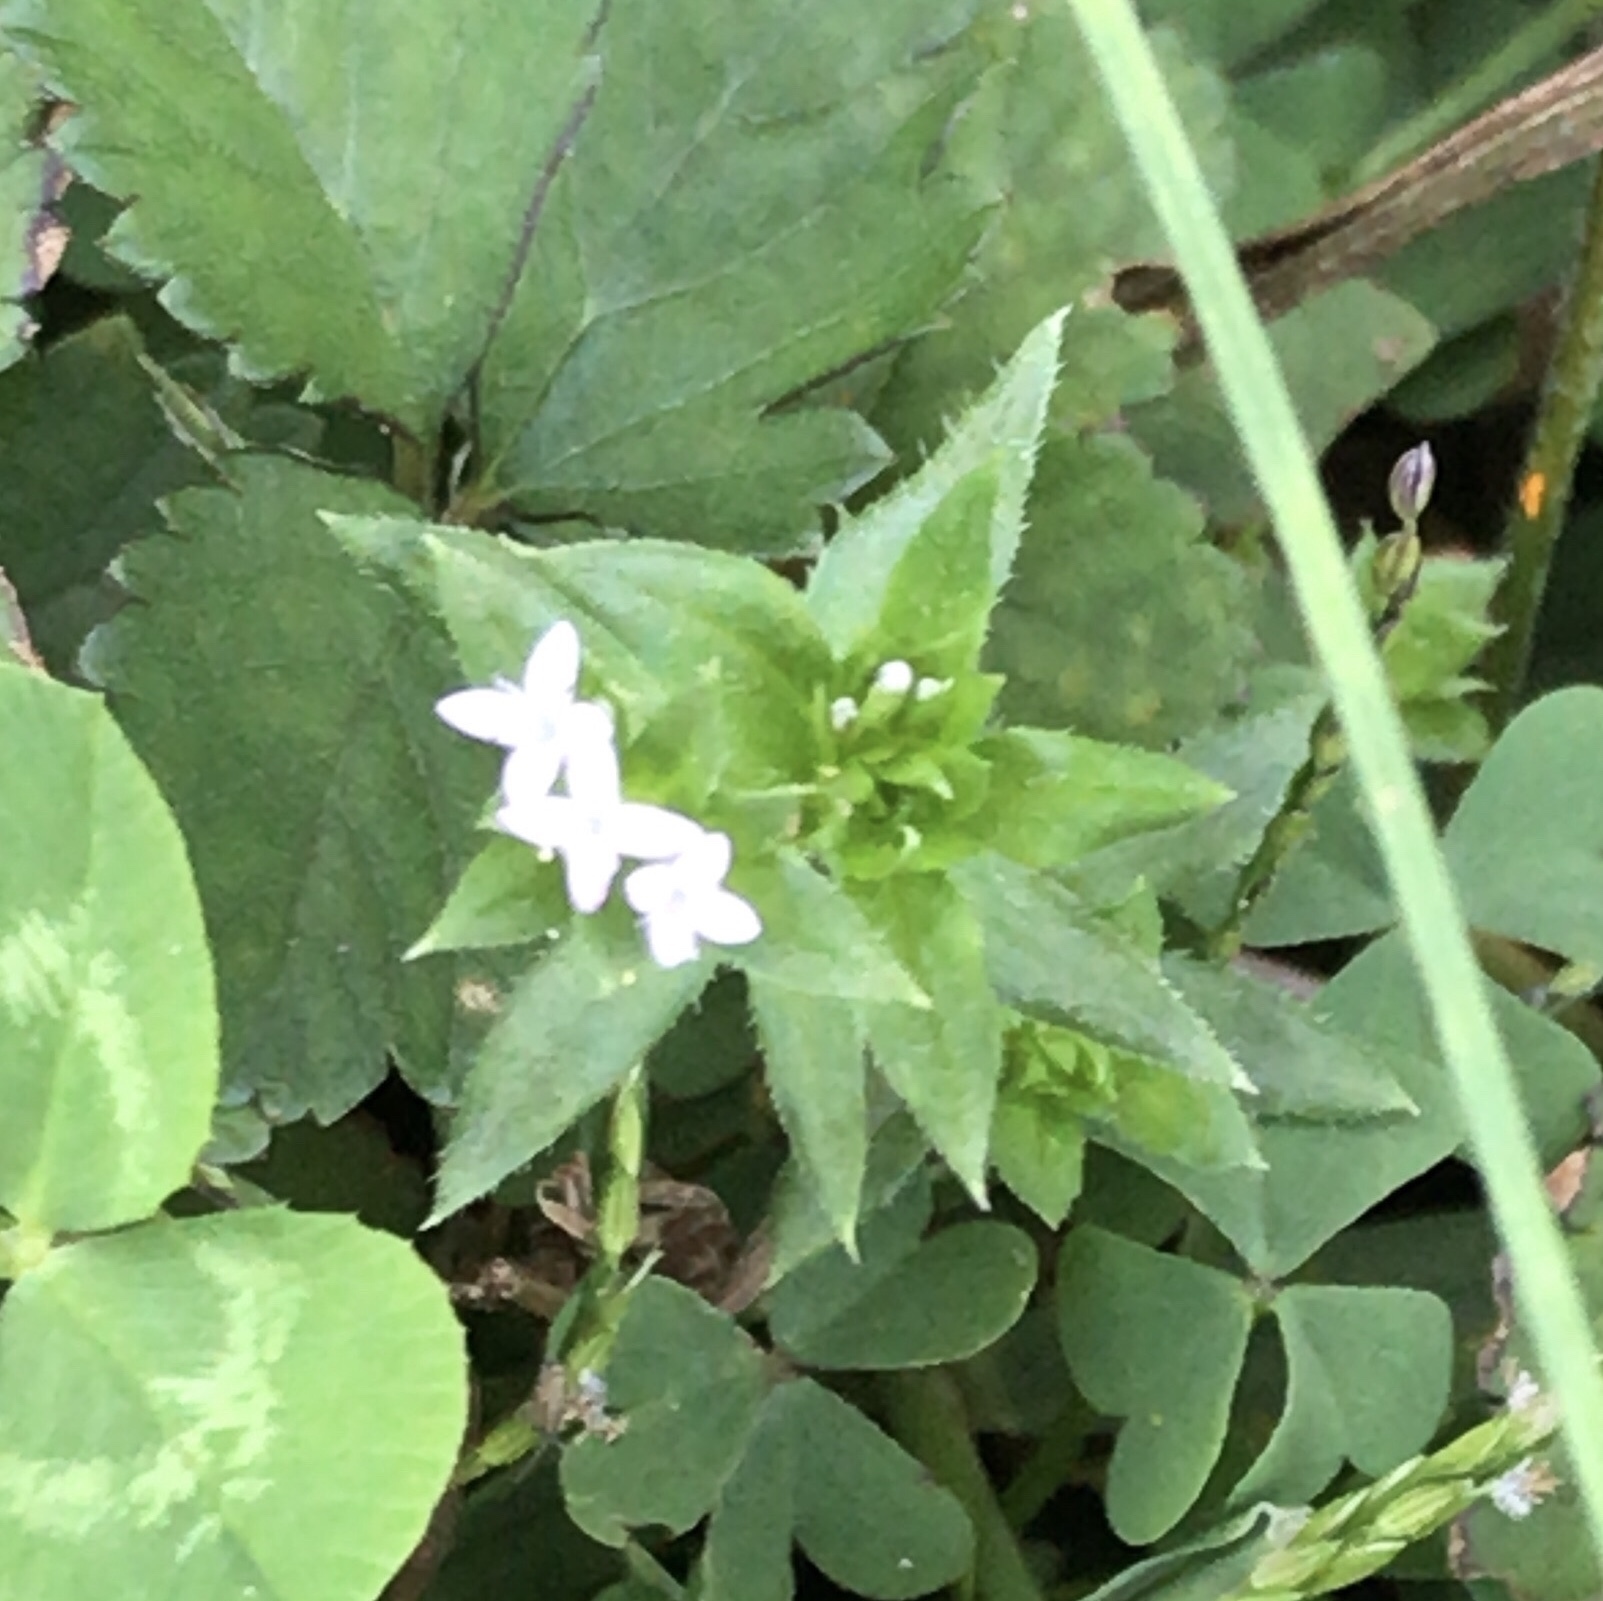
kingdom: Plantae
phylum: Tracheophyta
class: Magnoliopsida
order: Gentianales
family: Rubiaceae
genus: Sherardia
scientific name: Sherardia arvensis
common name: Field madder
